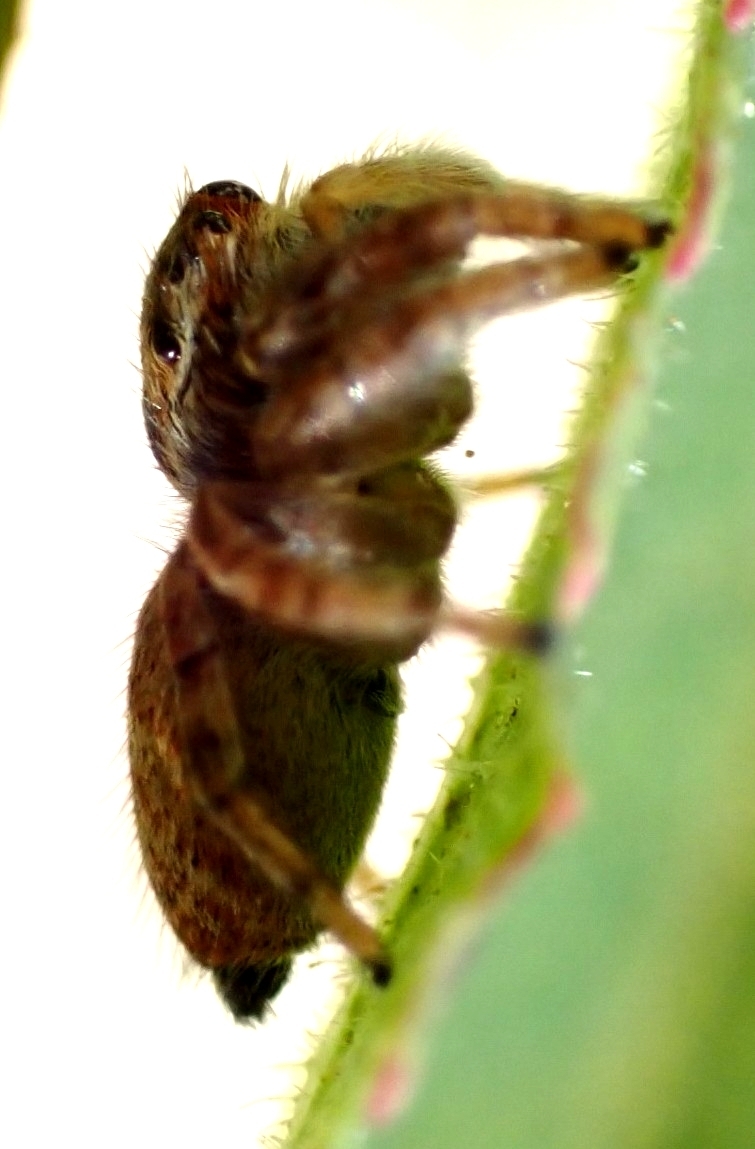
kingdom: Animalia
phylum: Arthropoda
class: Arachnida
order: Araneae
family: Salticidae
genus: Carrhotus
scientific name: Carrhotus xanthogramma
